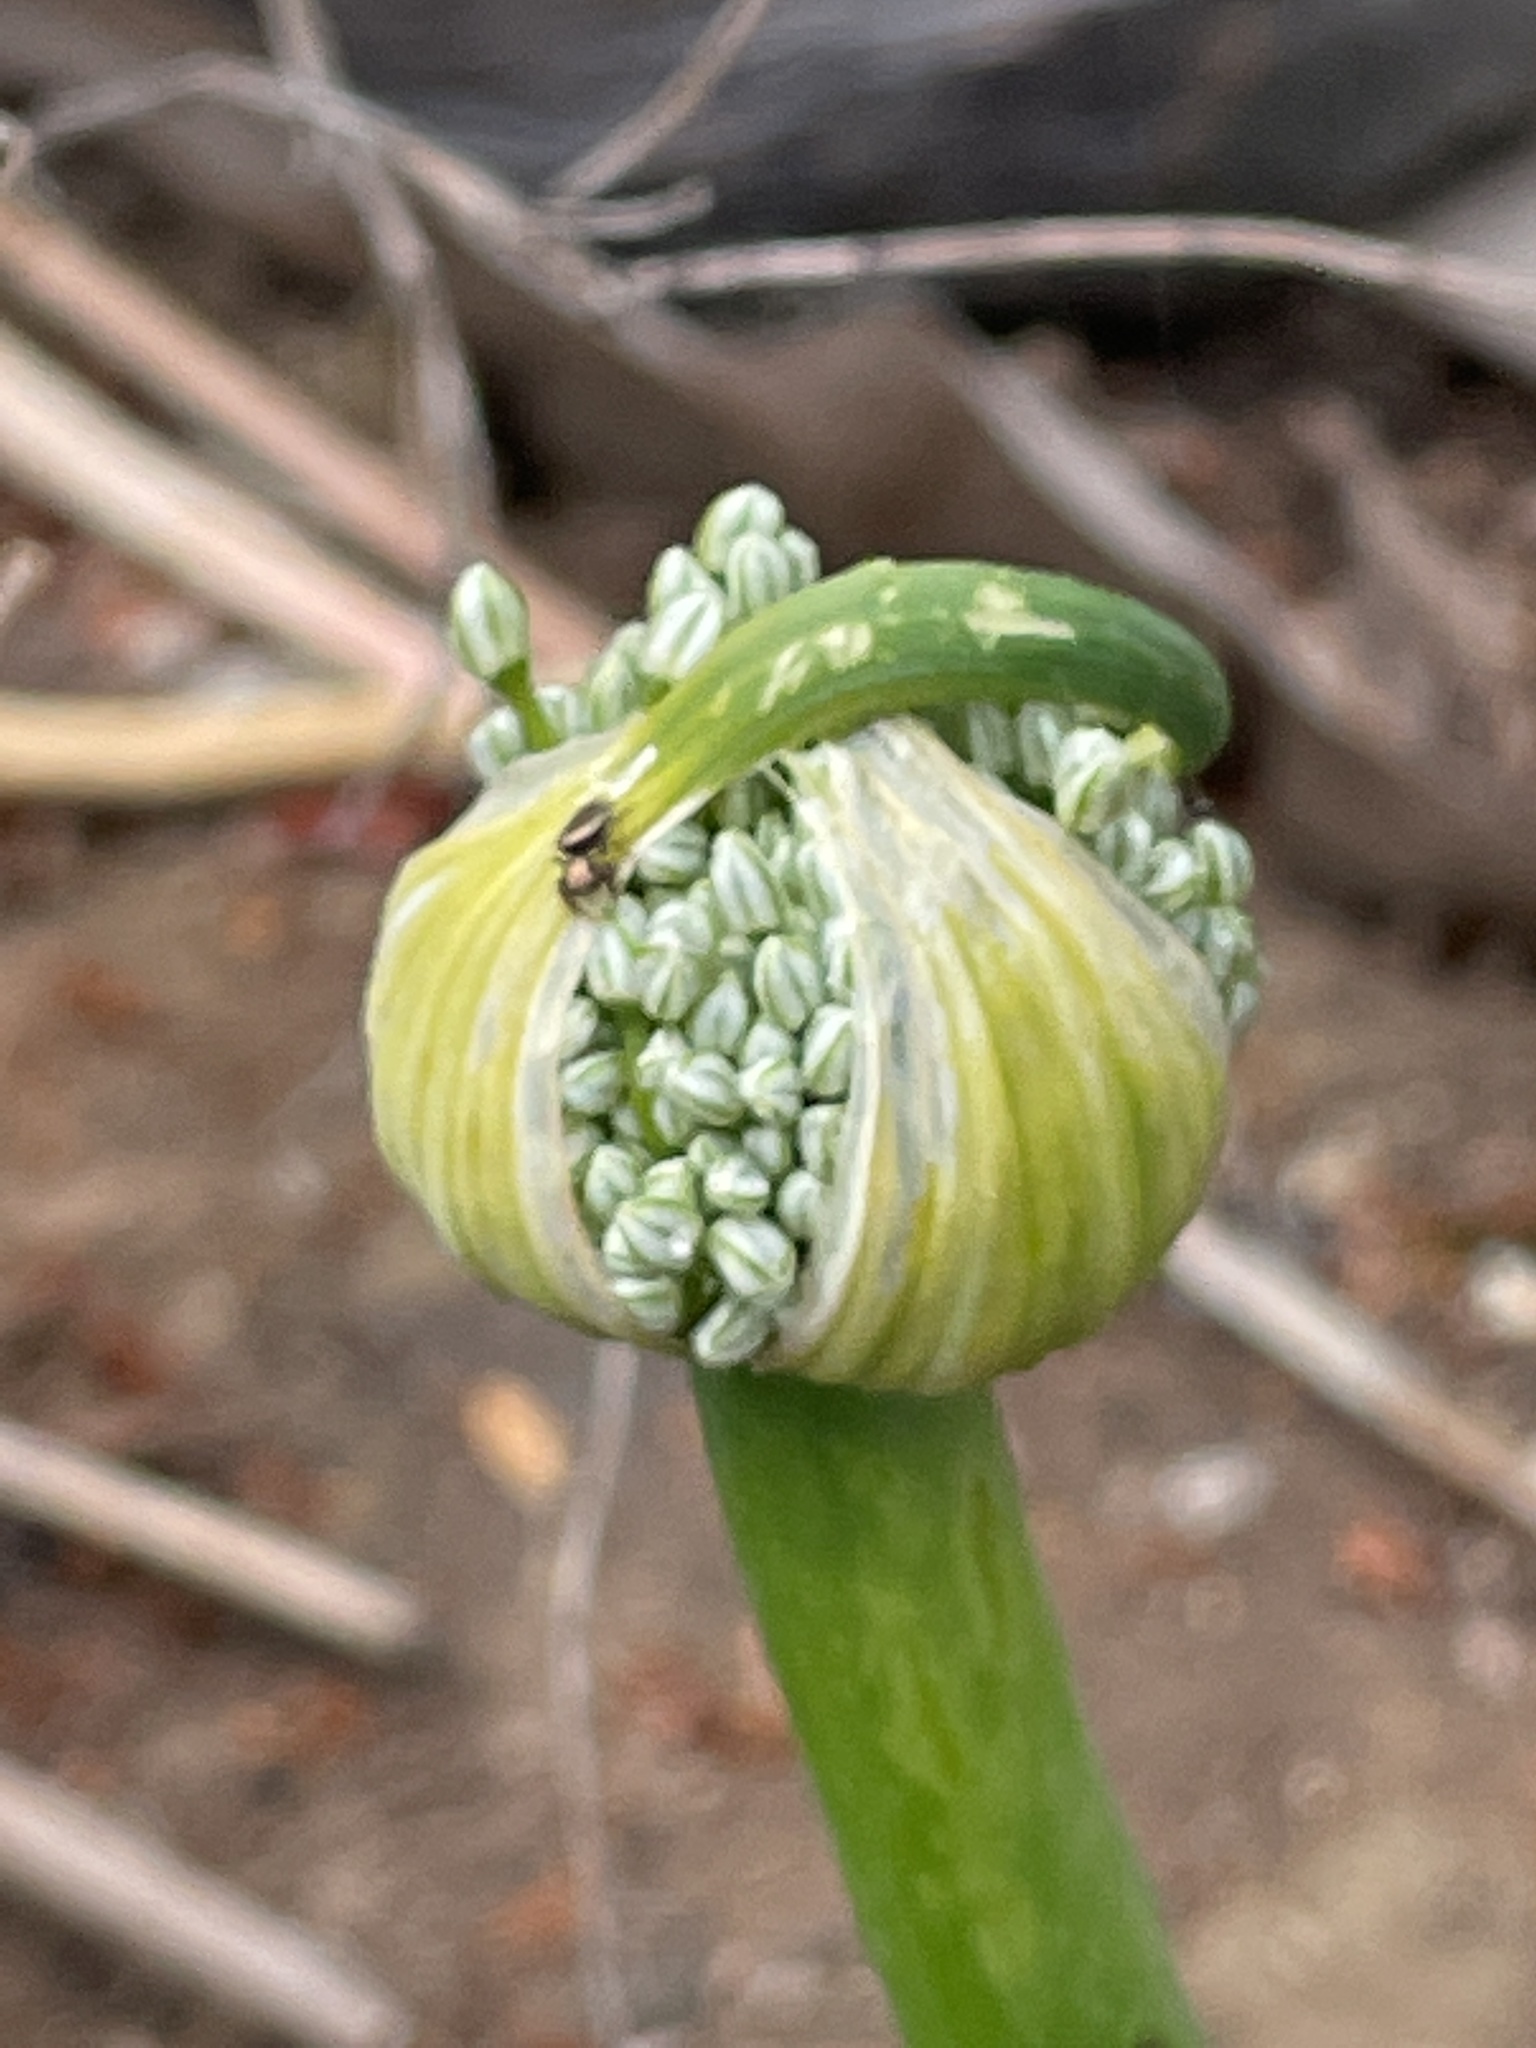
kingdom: Plantae
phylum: Tracheophyta
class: Liliopsida
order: Asparagales
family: Amaryllidaceae
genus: Allium
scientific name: Allium cepa
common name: Onion
